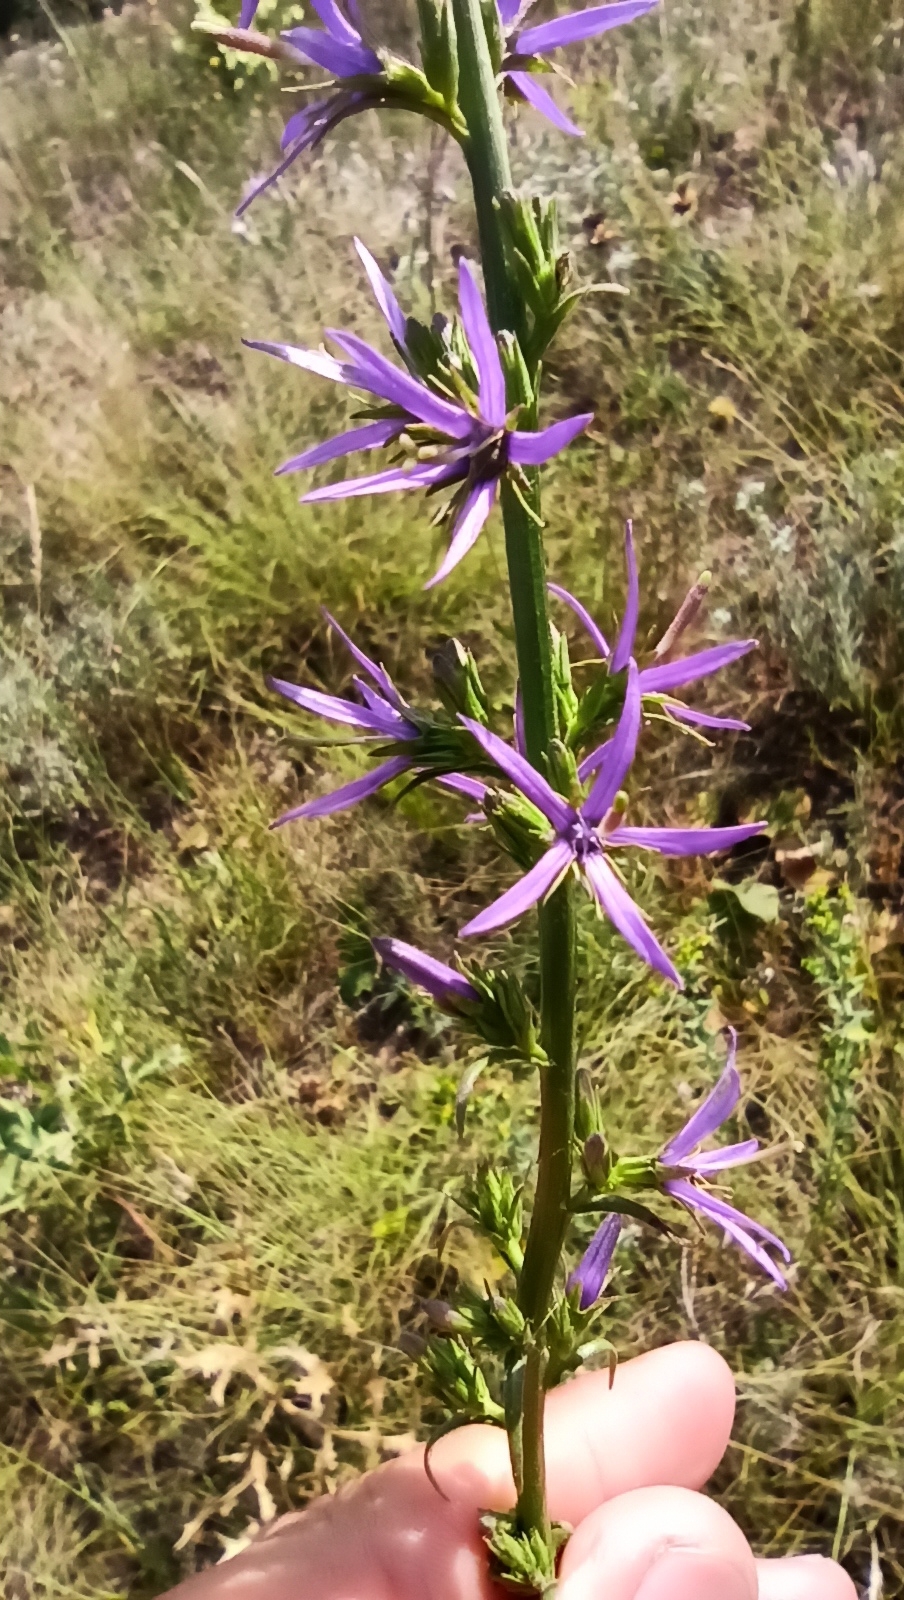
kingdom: Plantae
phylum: Tracheophyta
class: Magnoliopsida
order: Asterales
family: Campanulaceae
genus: Asyneuma
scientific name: Asyneuma canescens
